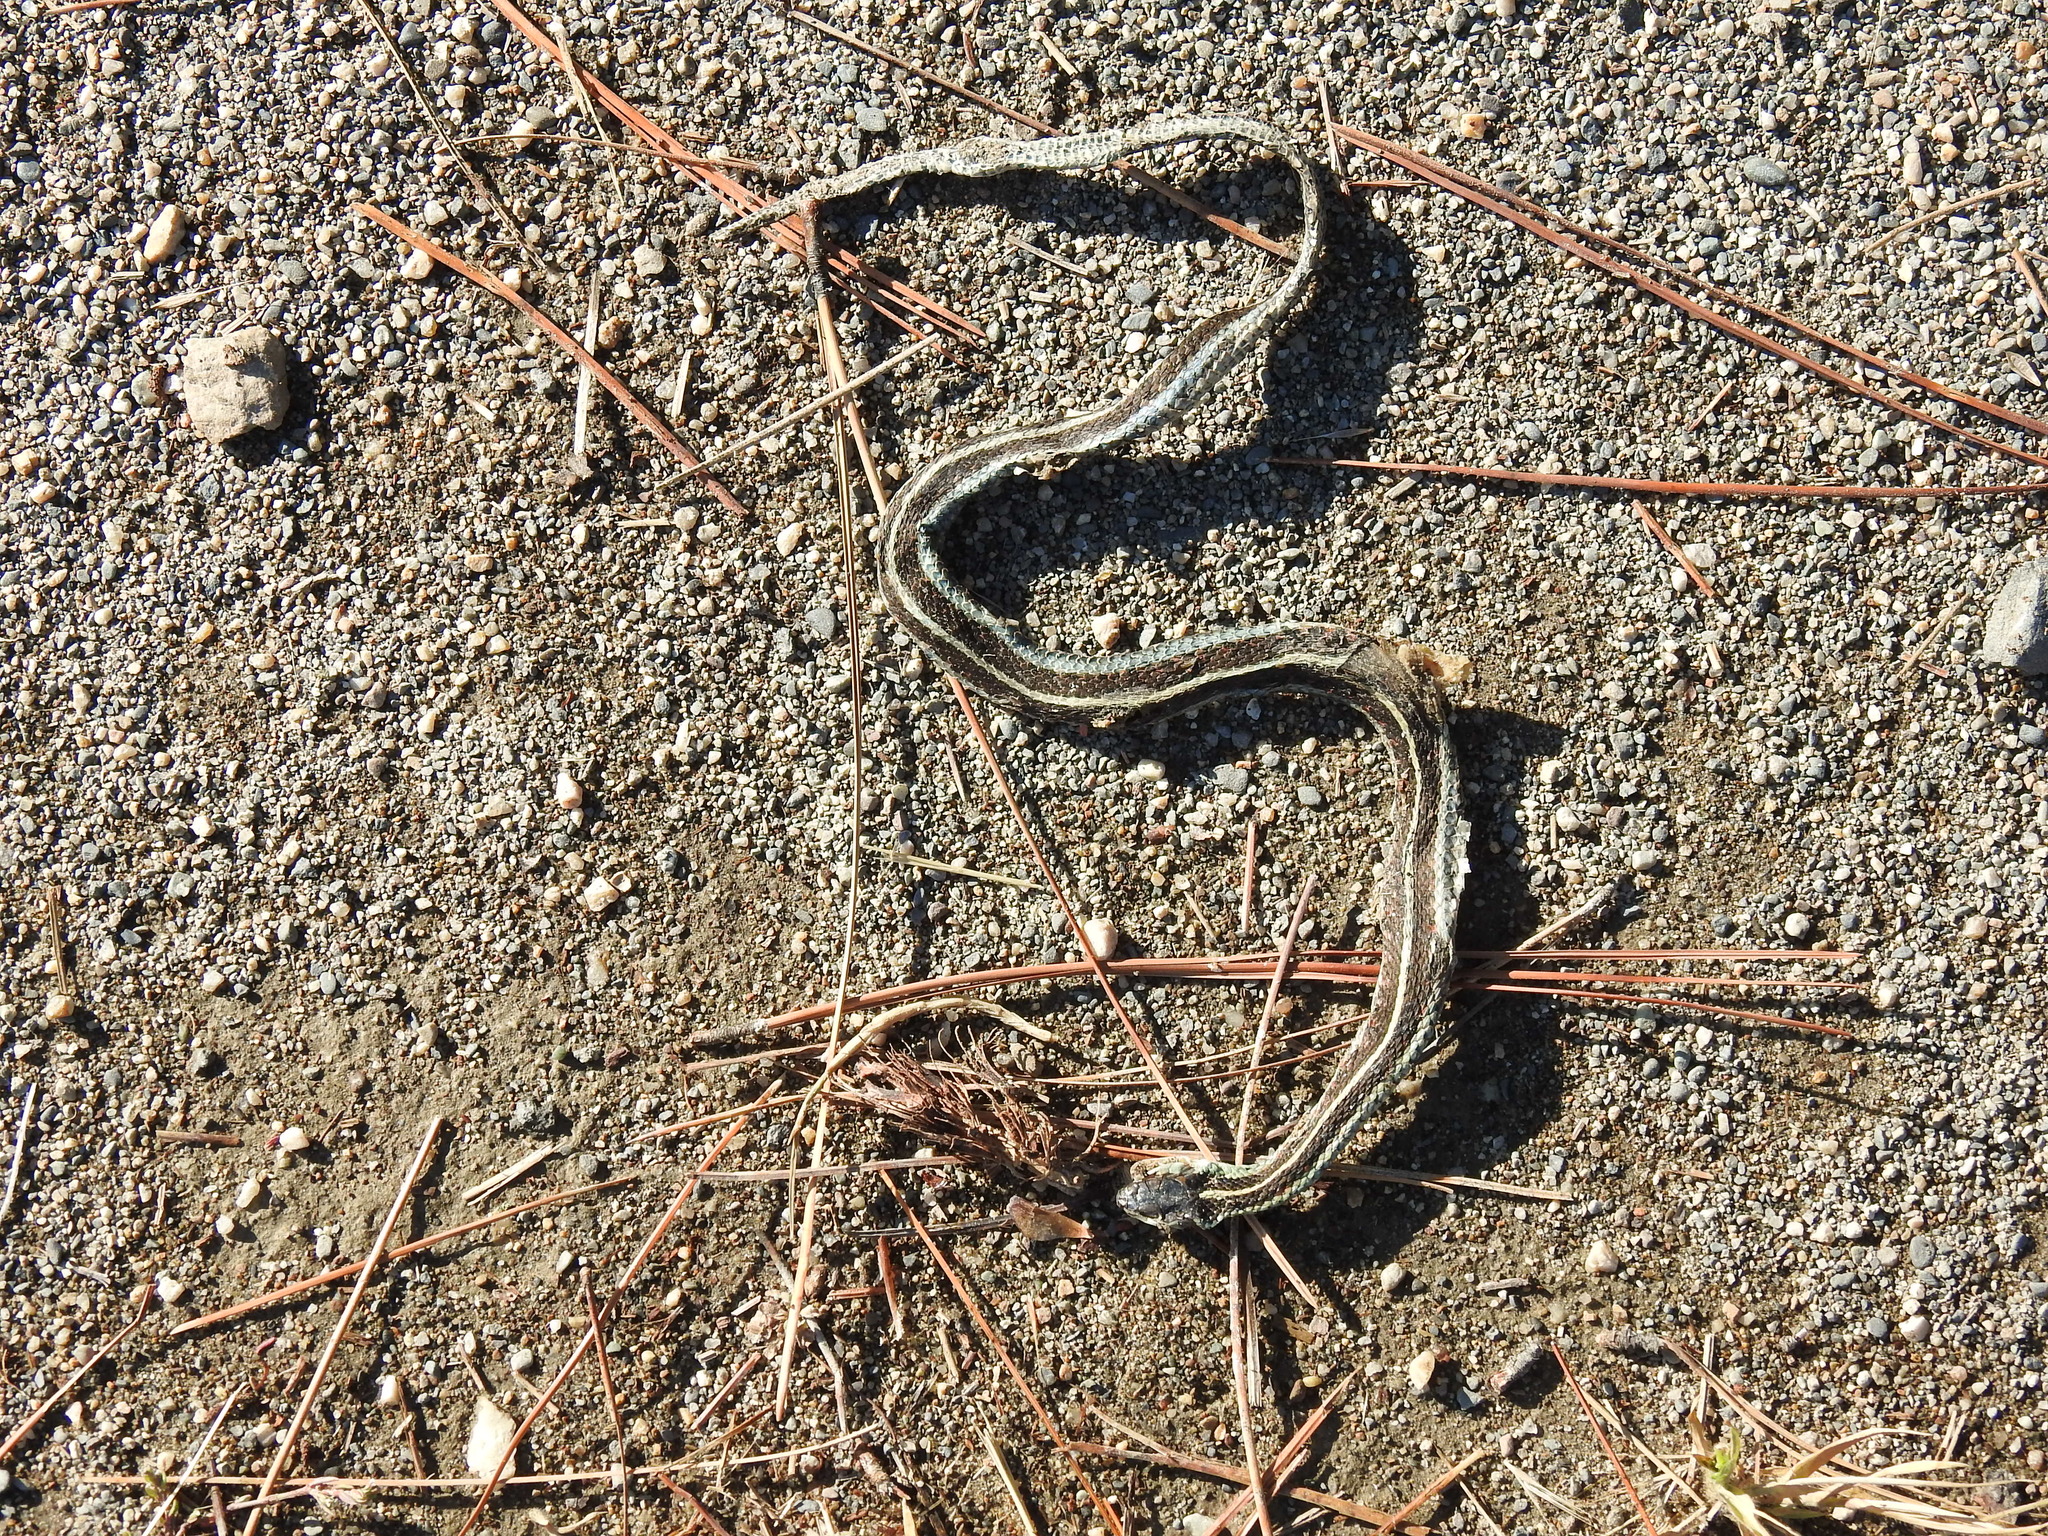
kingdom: Animalia
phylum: Chordata
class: Squamata
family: Colubridae
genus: Thamnophis
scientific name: Thamnophis sirtalis
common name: Common garter snake
